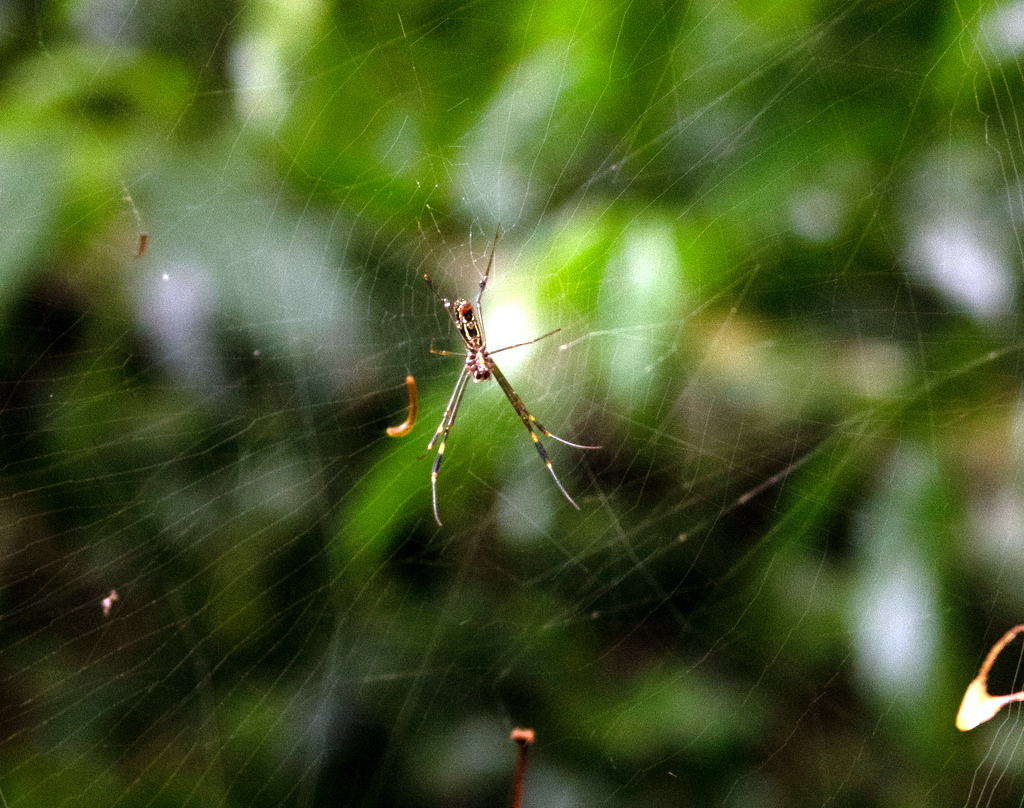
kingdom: Animalia
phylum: Arthropoda
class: Arachnida
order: Araneae
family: Araneidae
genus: Trichonephila
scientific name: Trichonephila clavipes
